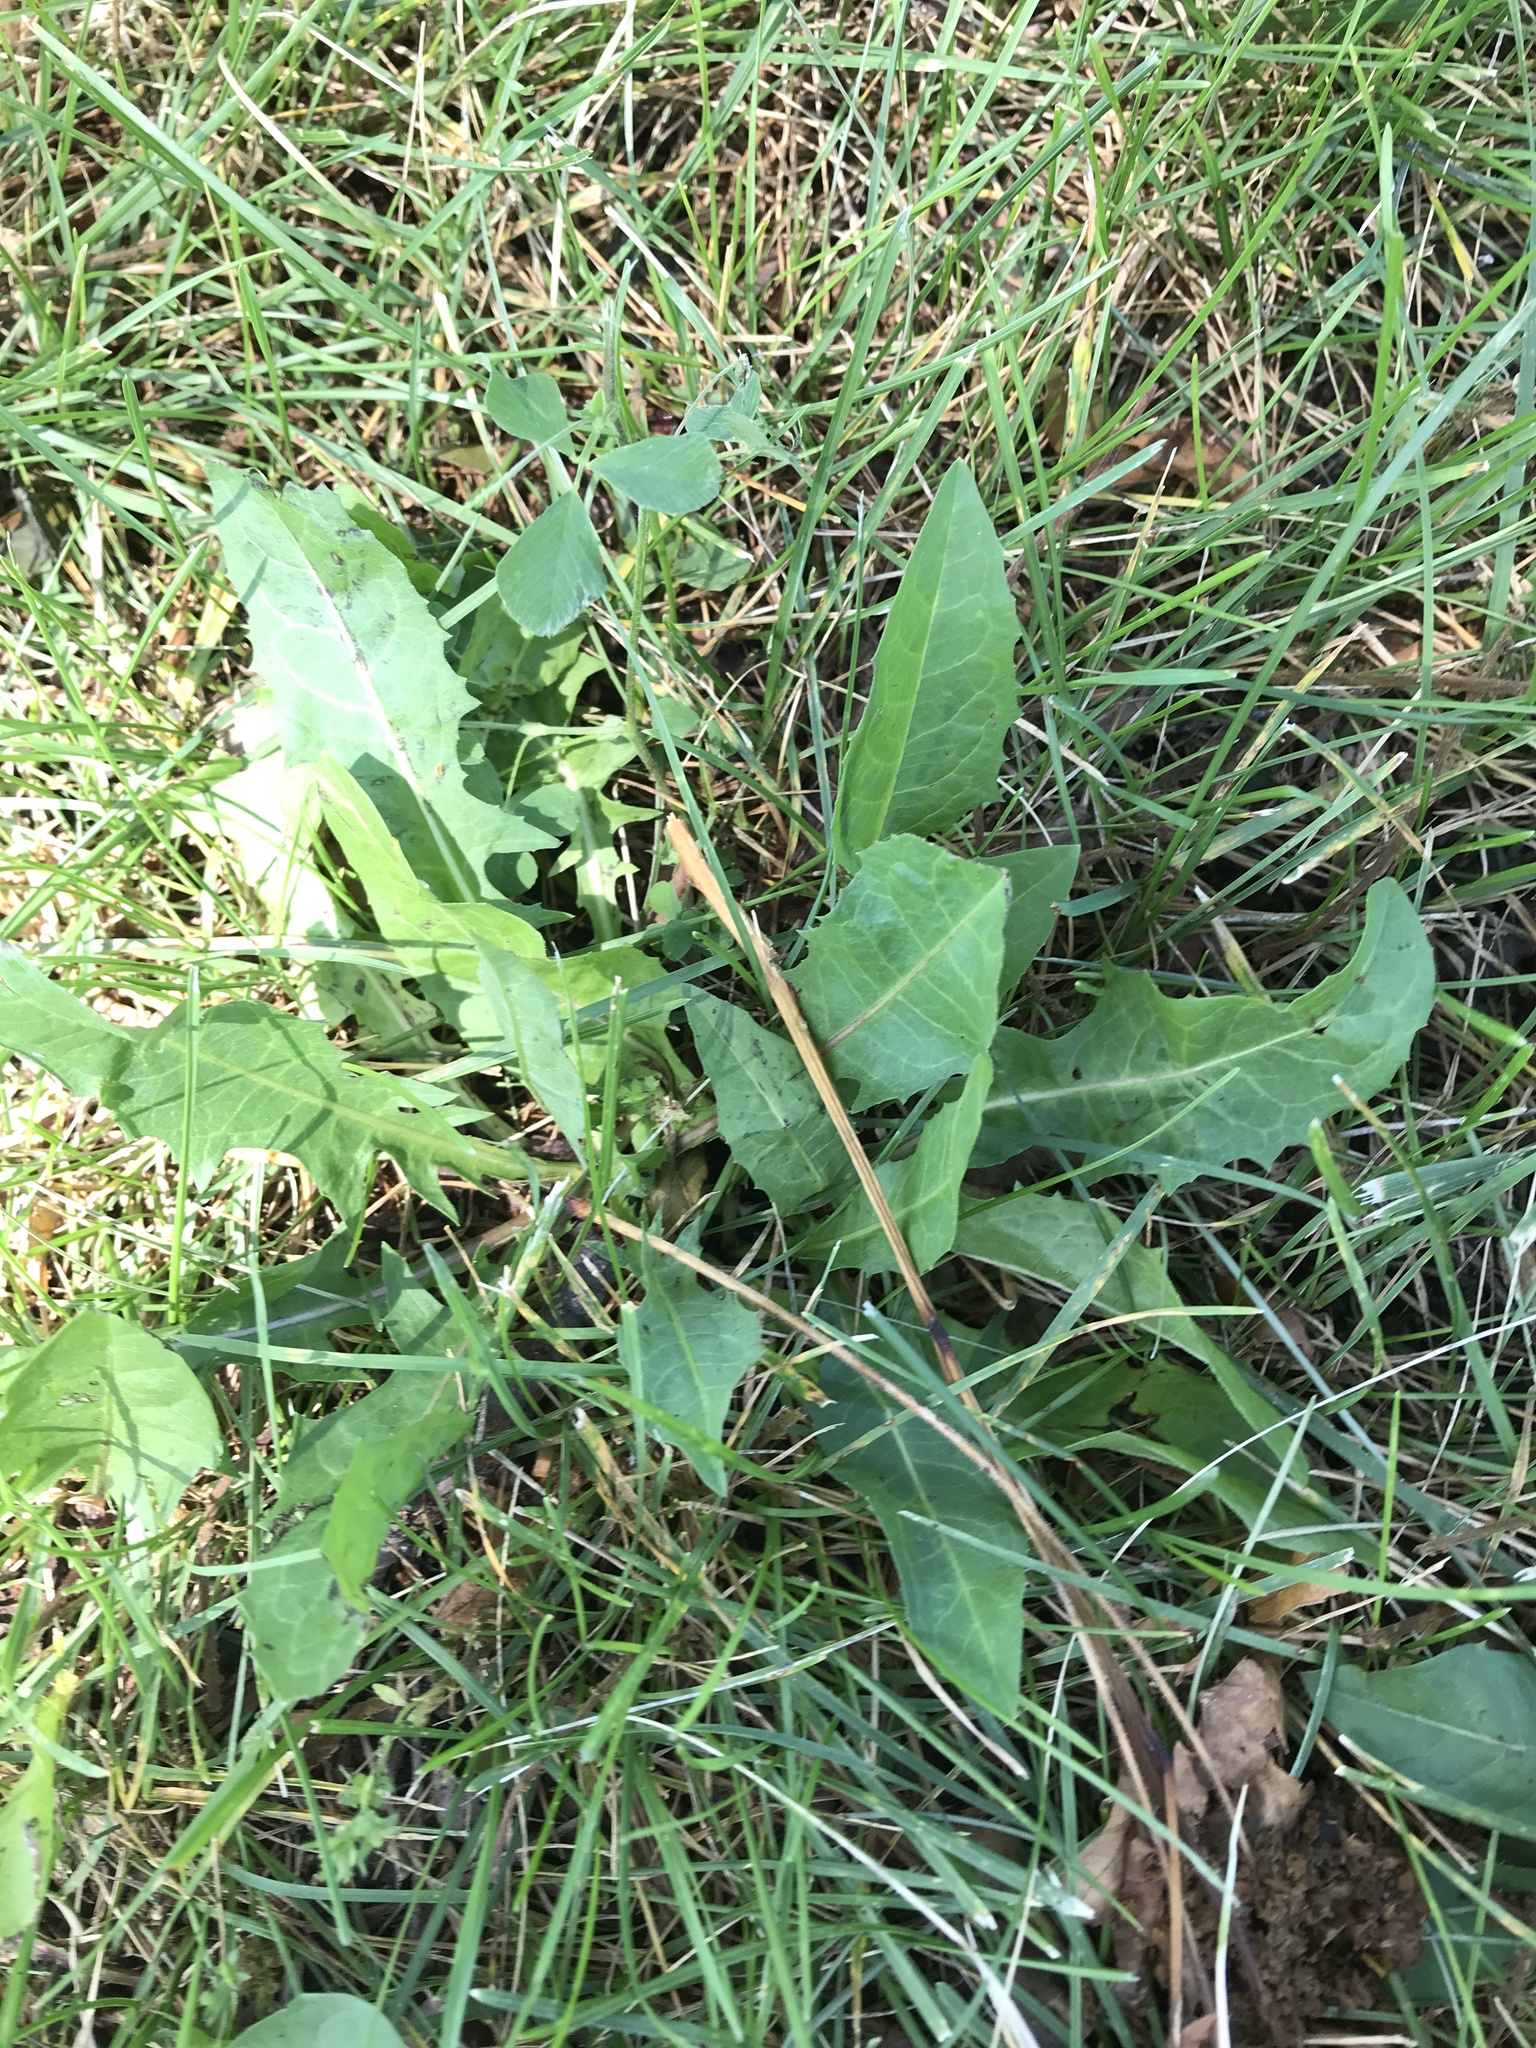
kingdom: Plantae
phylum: Tracheophyta
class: Magnoliopsida
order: Asterales
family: Asteraceae
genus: Taraxacum
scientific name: Taraxacum officinale
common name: Common dandelion
